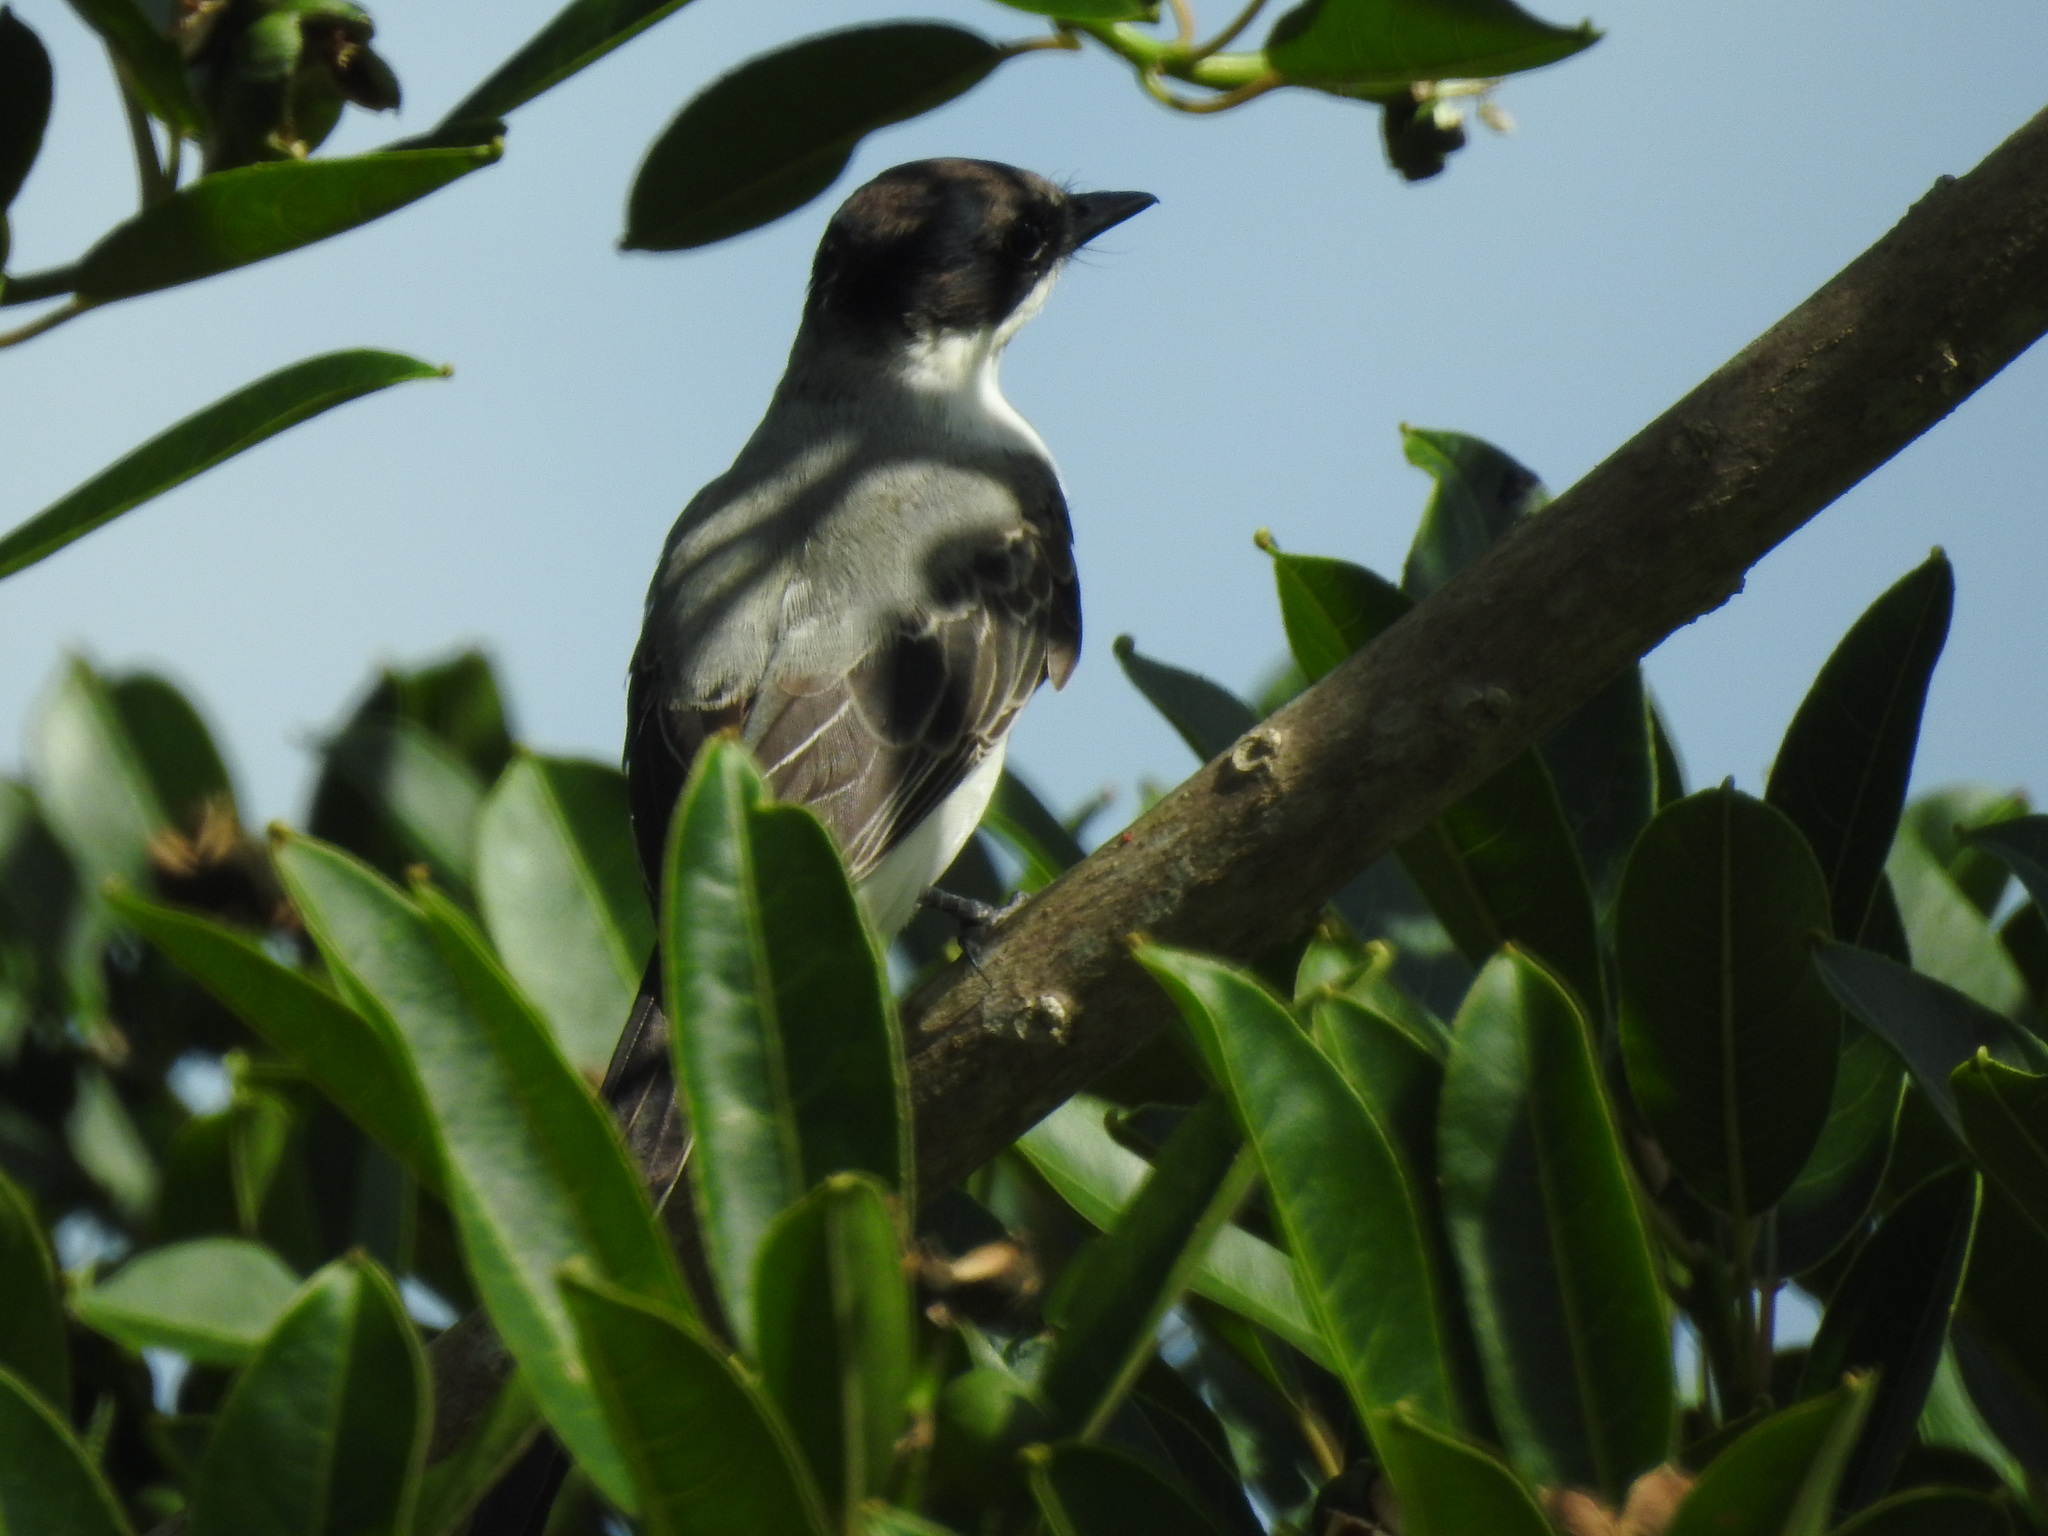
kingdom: Animalia
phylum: Chordata
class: Aves
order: Passeriformes
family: Tyrannidae
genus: Tyrannus
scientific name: Tyrannus savana
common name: Fork-tailed flycatcher
